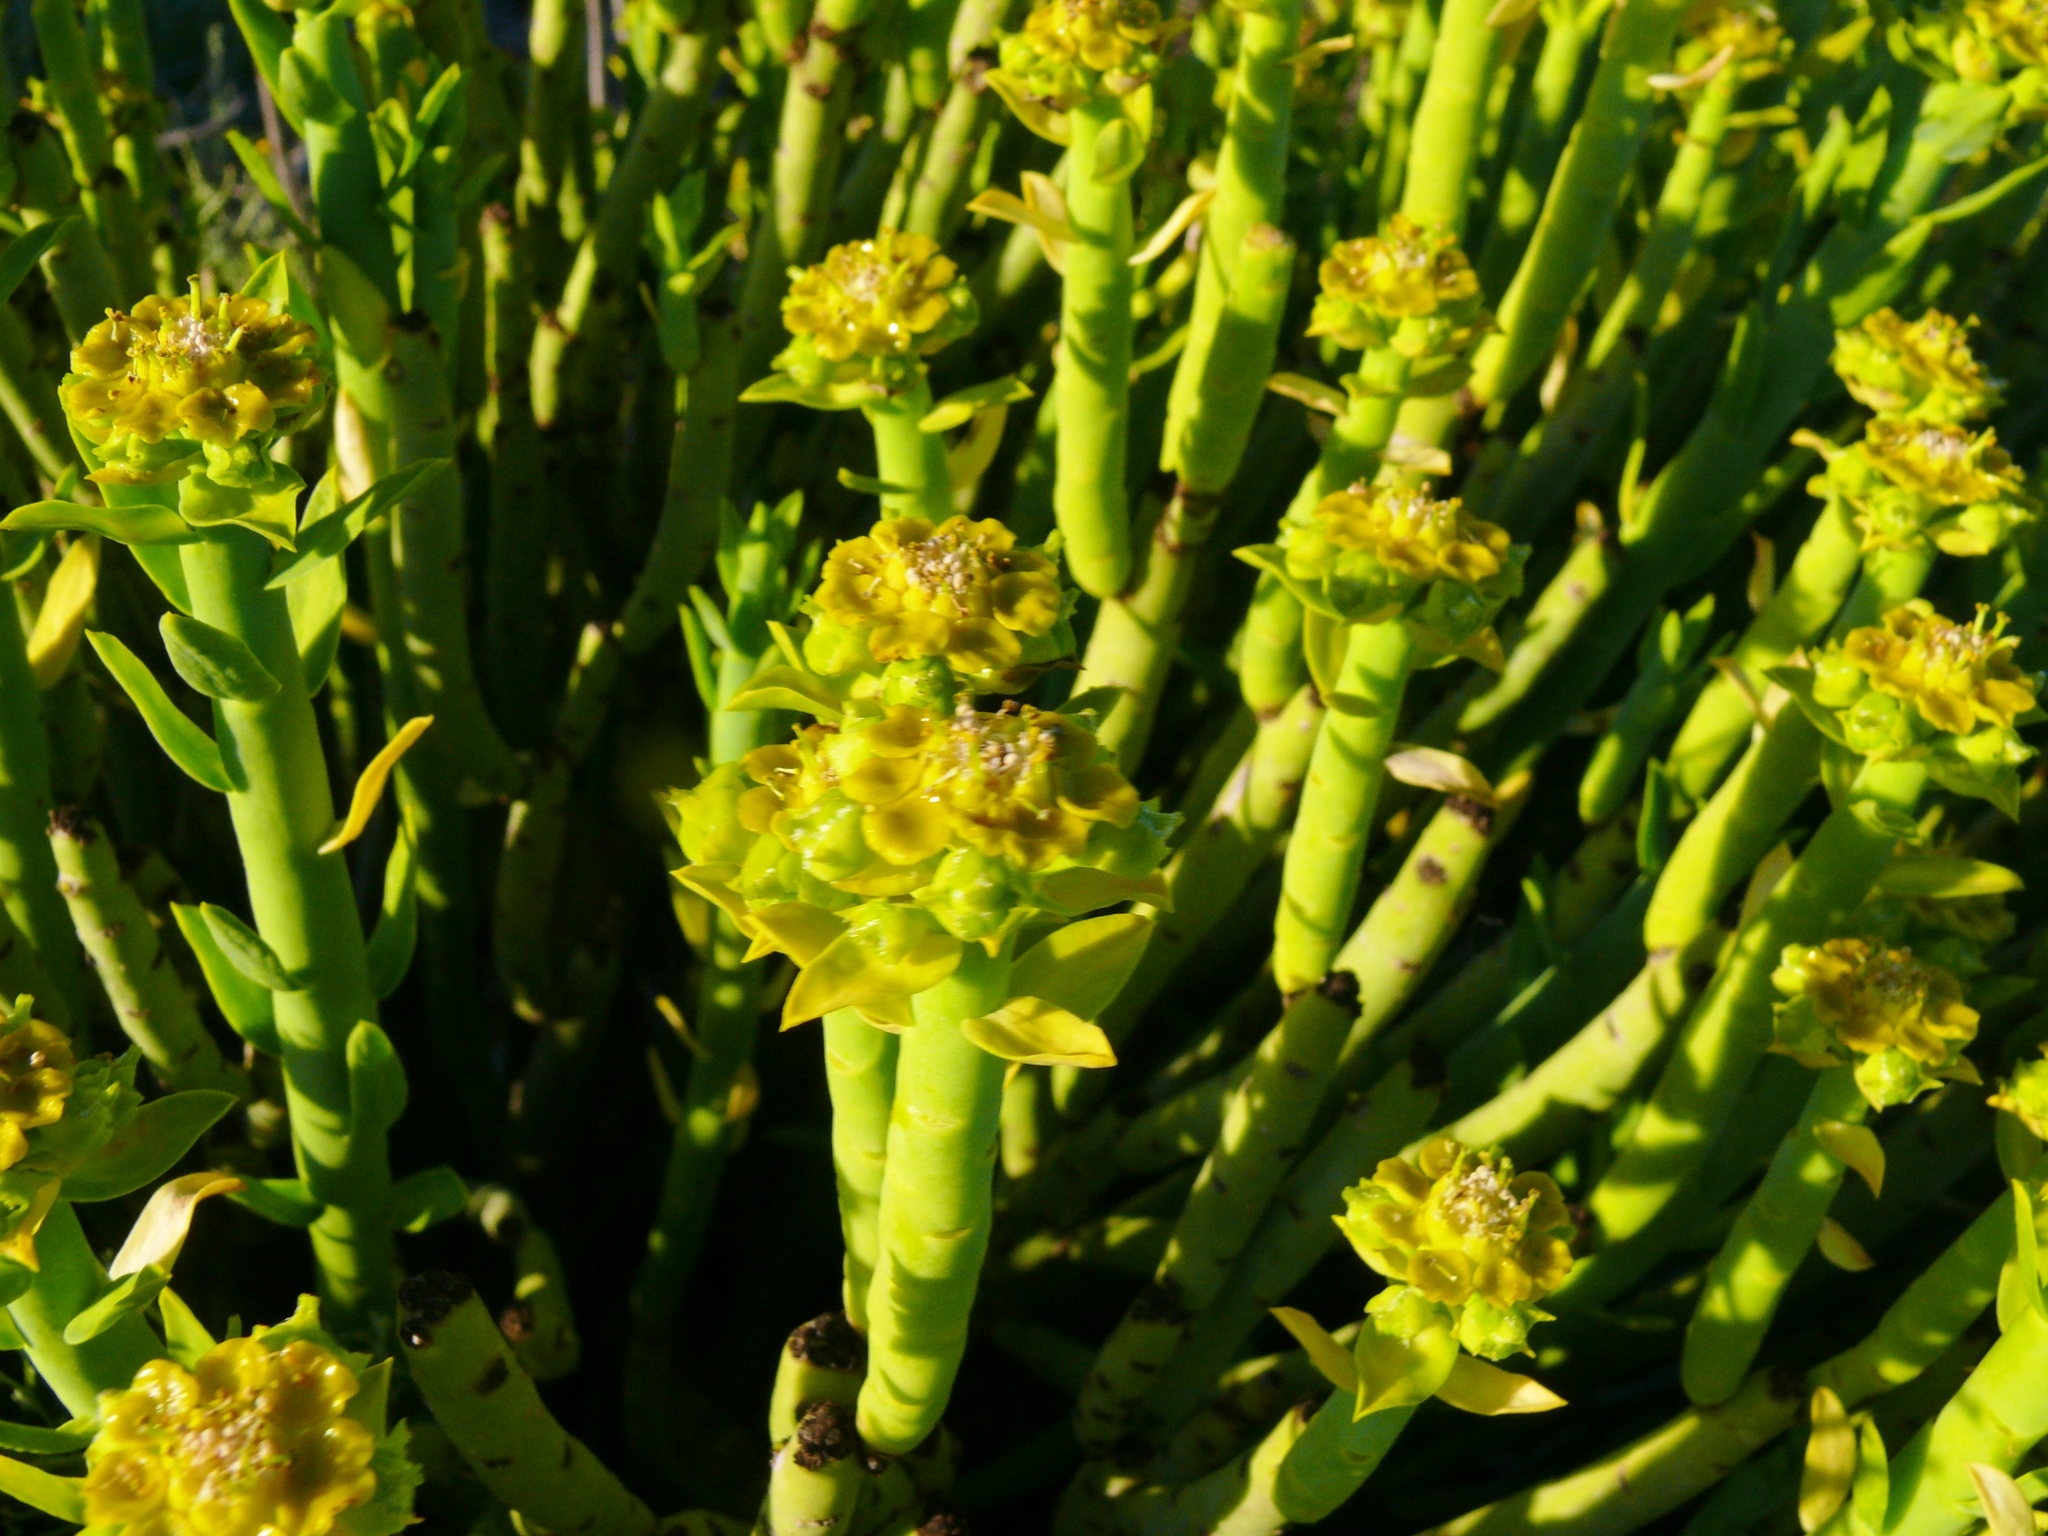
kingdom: Plantae
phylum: Tracheophyta
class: Magnoliopsida
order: Malpighiales
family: Euphorbiaceae
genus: Euphorbia
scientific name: Euphorbia mauritanica
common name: Jackal's-food
